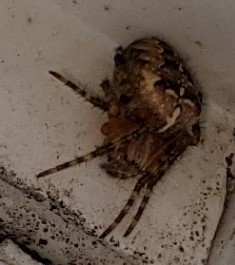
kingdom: Animalia
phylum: Arthropoda
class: Arachnida
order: Araneae
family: Araneidae
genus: Araneus
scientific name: Araneus diadematus
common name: Cross orbweaver
